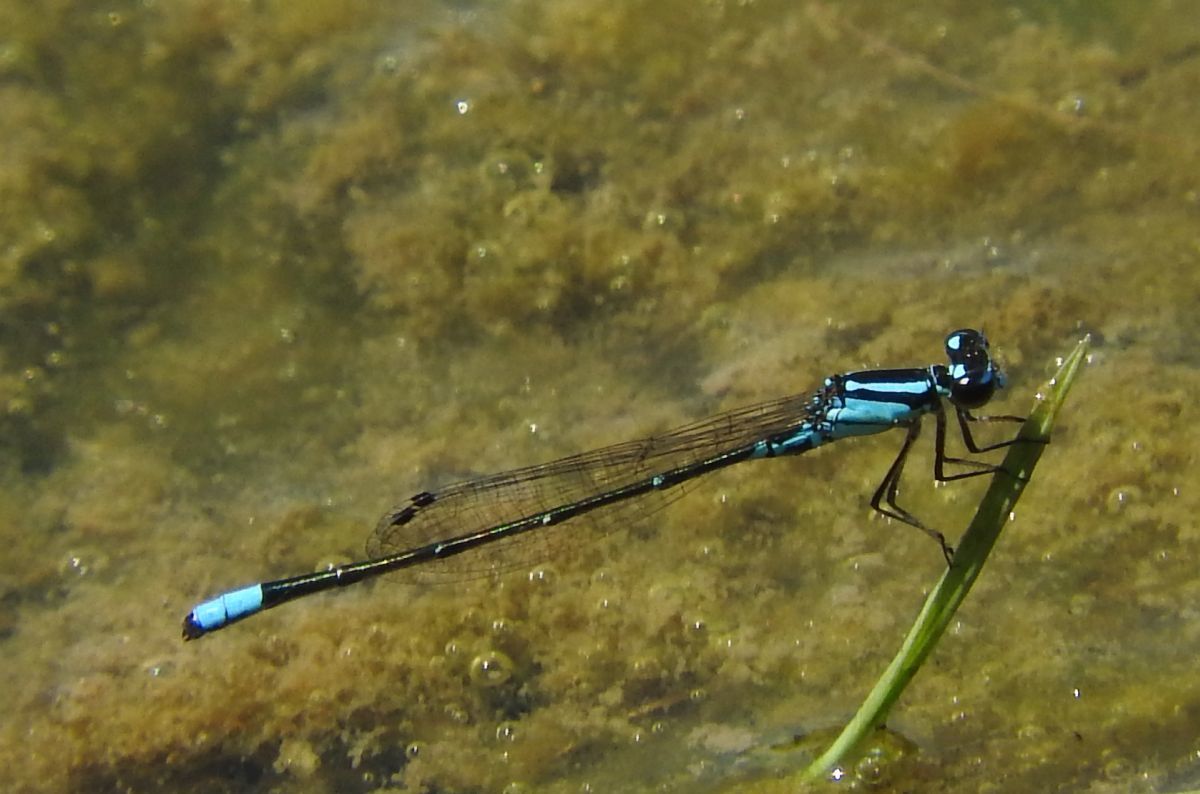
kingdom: Animalia
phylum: Arthropoda
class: Insecta
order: Odonata
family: Coenagrionidae
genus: Enallagma
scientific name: Enallagma geminatum
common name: Skimming bluet
